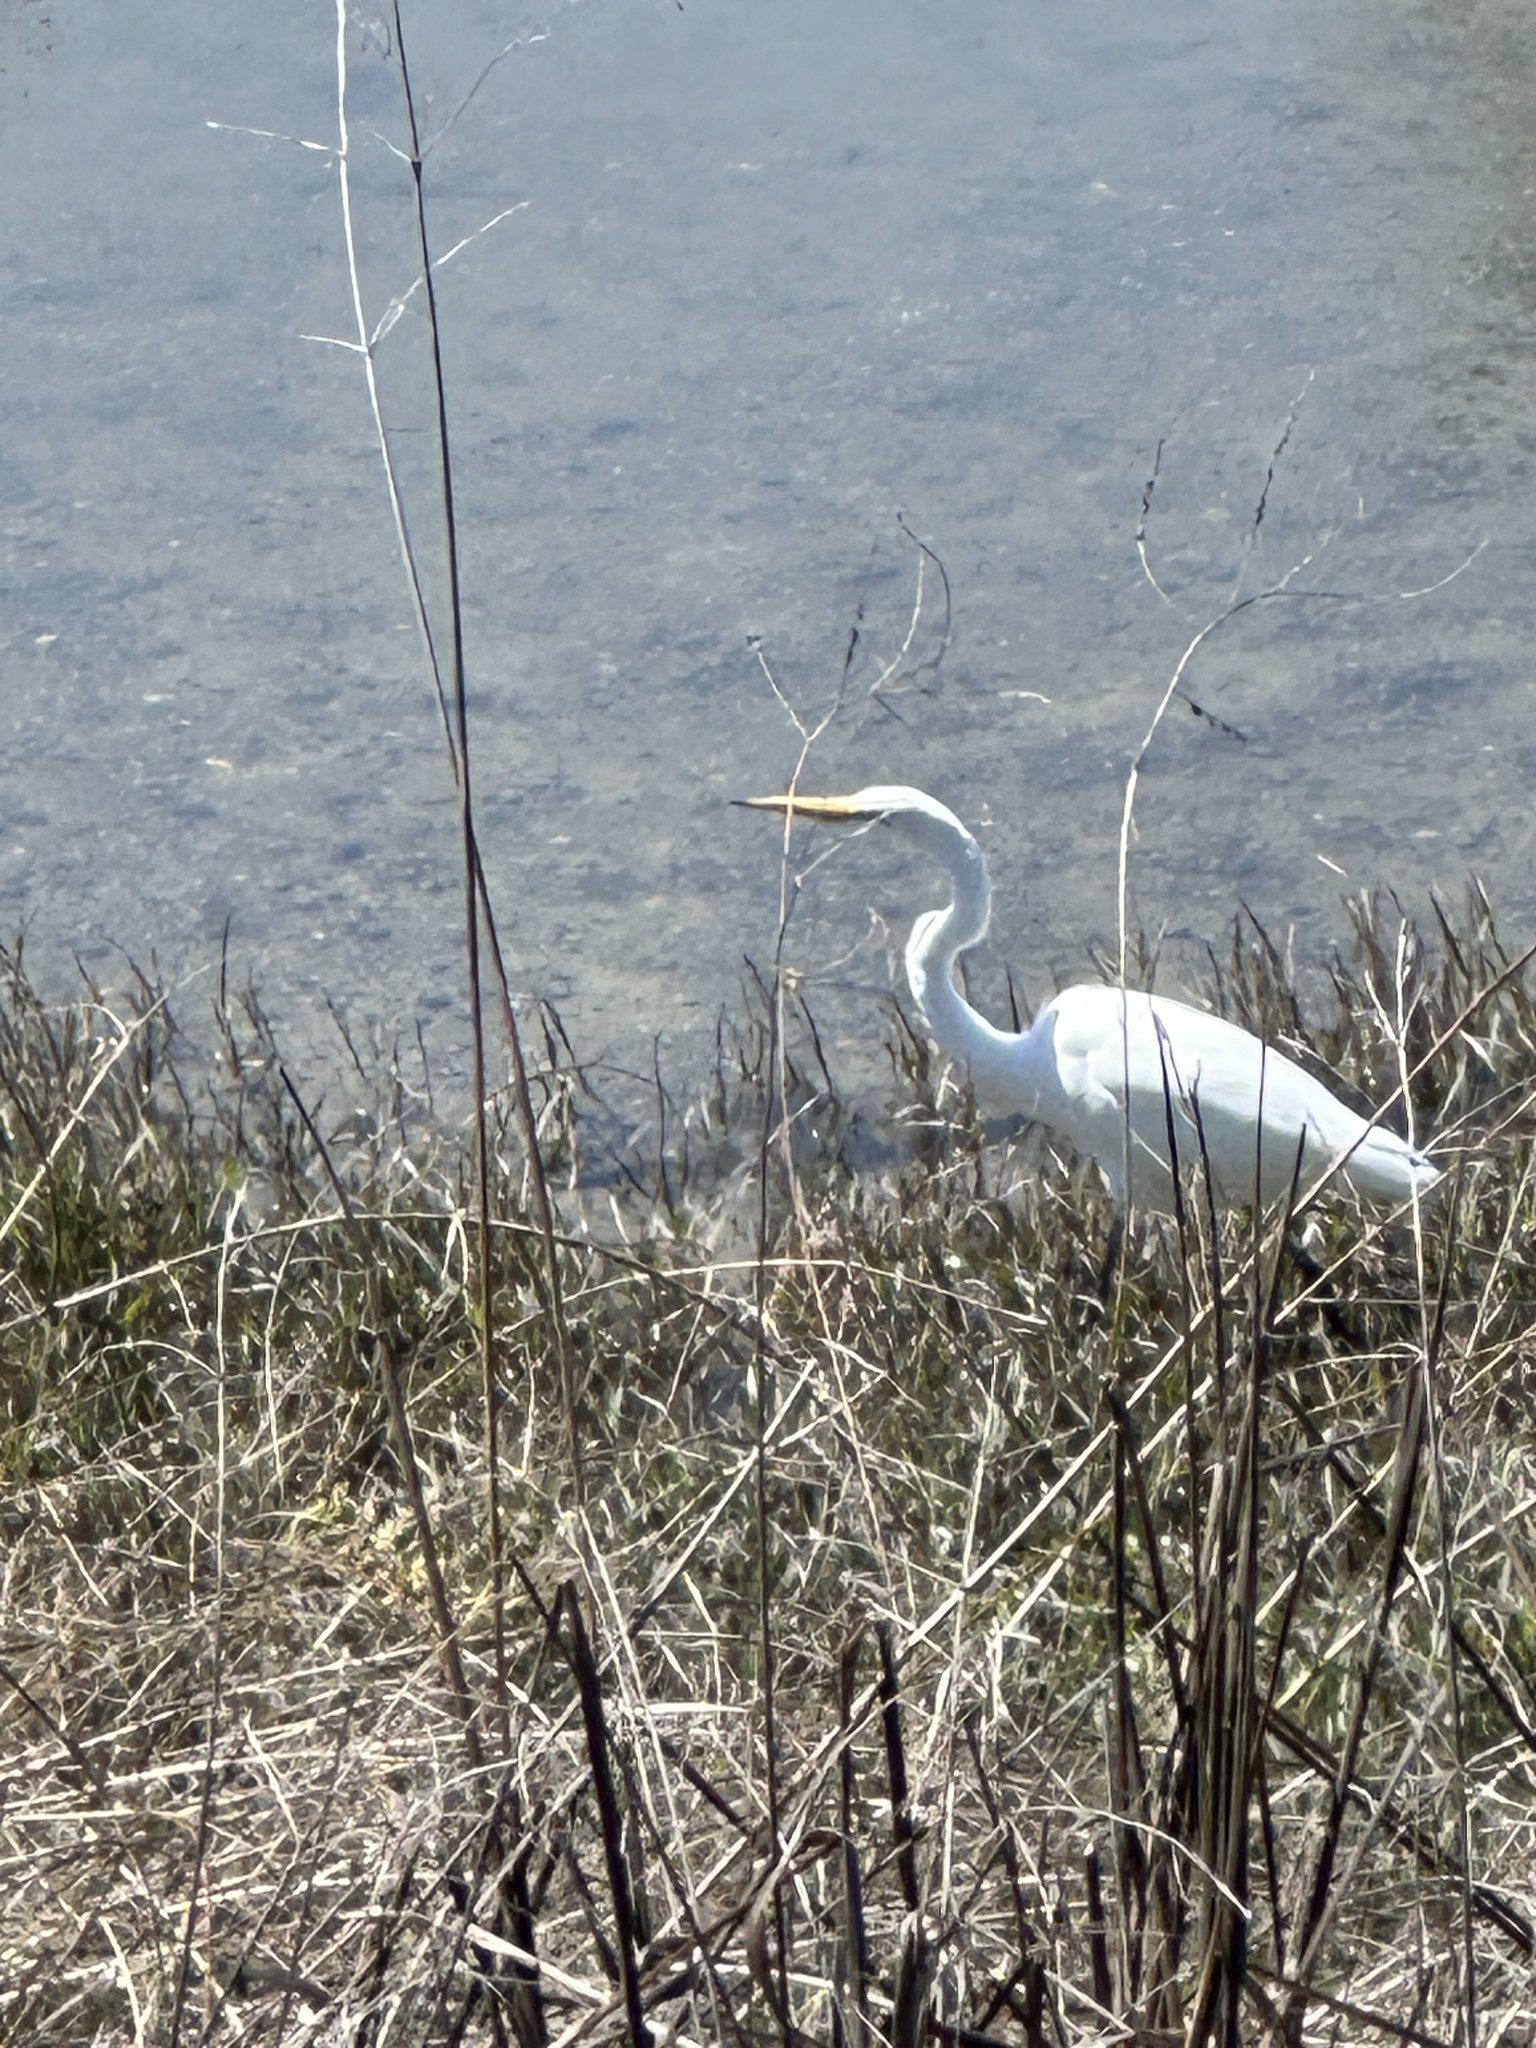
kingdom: Animalia
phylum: Chordata
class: Aves
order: Pelecaniformes
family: Ardeidae
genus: Ardea
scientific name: Ardea alba
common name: Great egret
